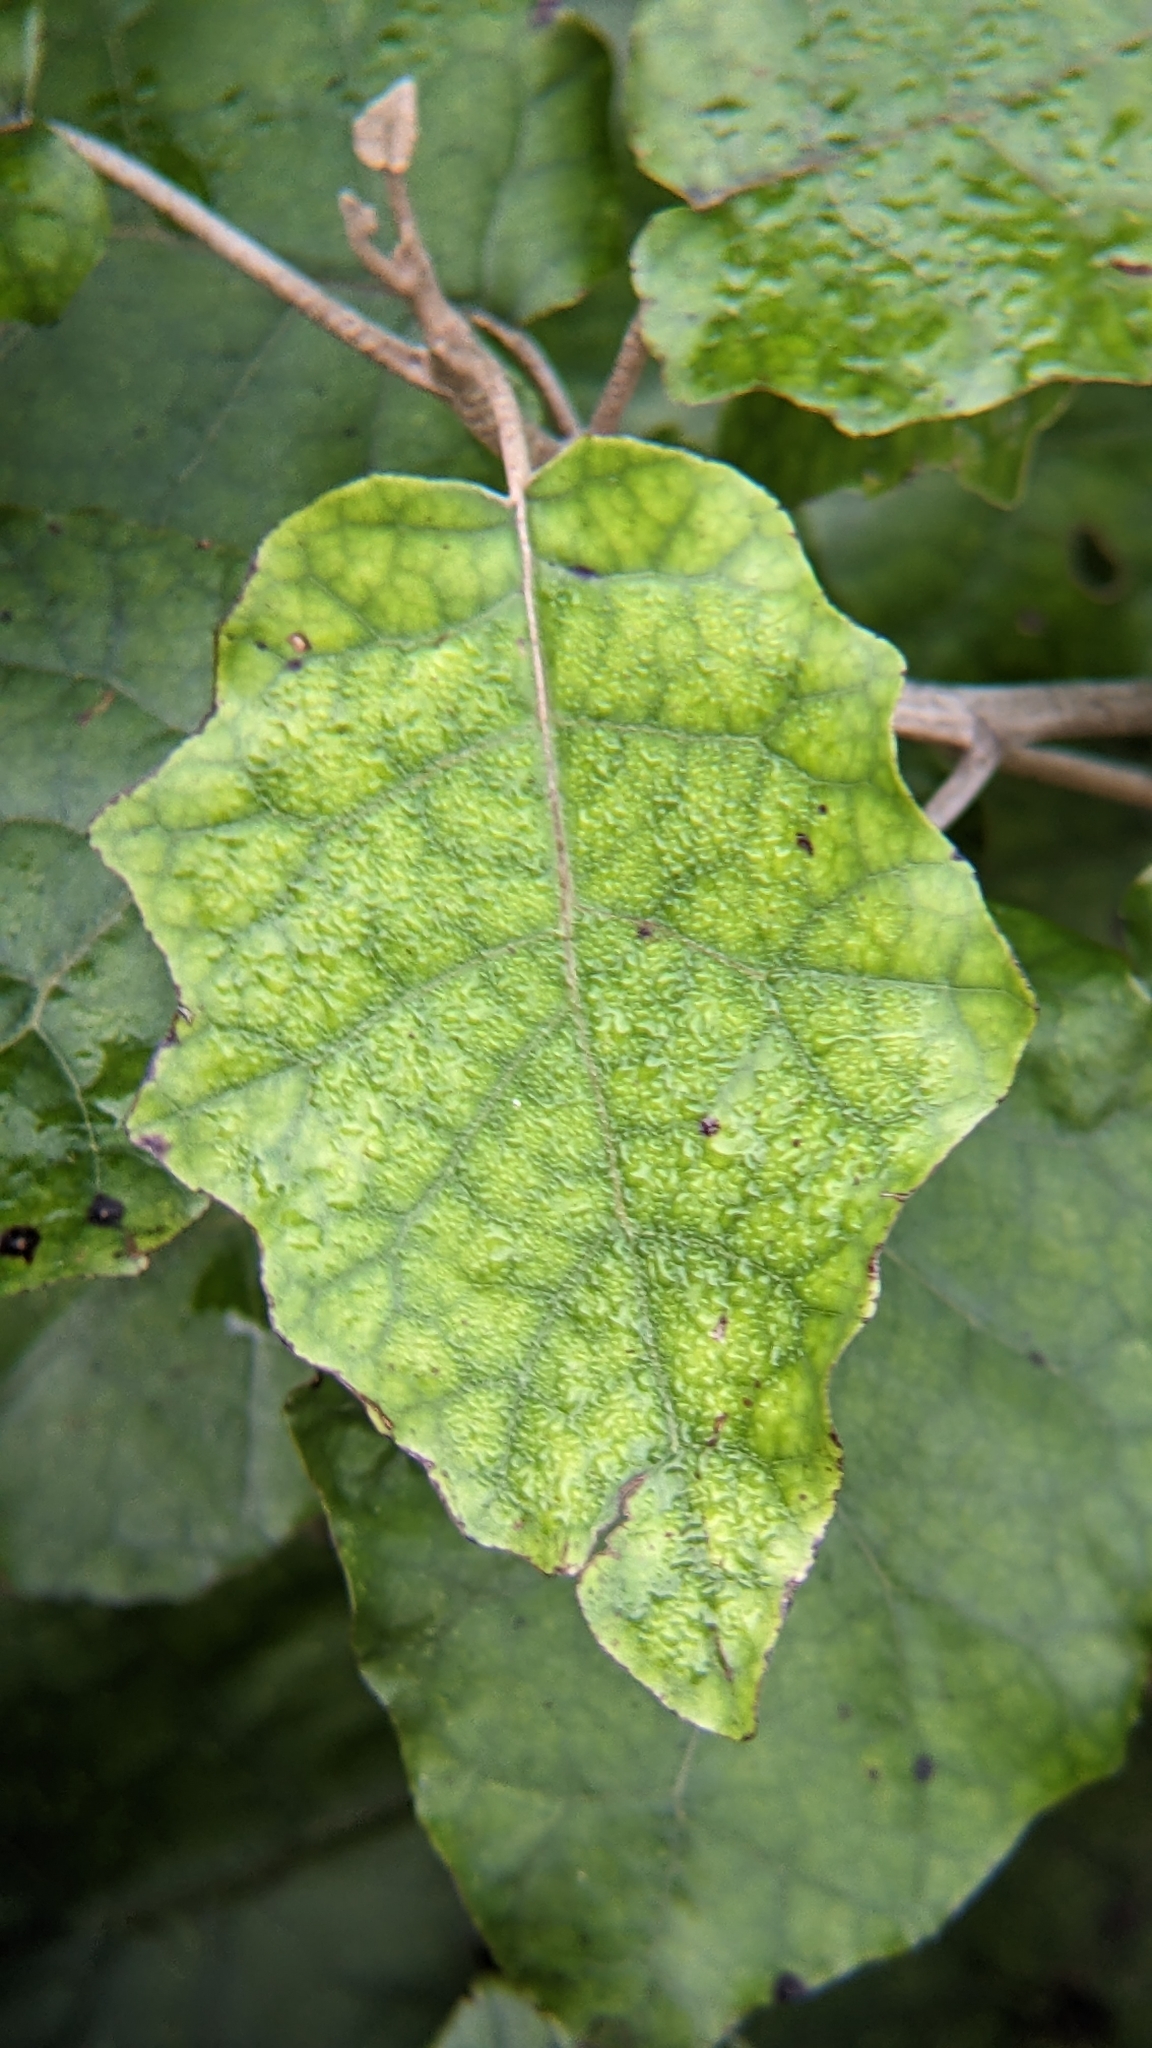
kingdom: Plantae
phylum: Tracheophyta
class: Magnoliopsida
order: Asterales
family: Asteraceae
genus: Brachyglottis
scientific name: Brachyglottis repanda
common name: Hedge ragwort
